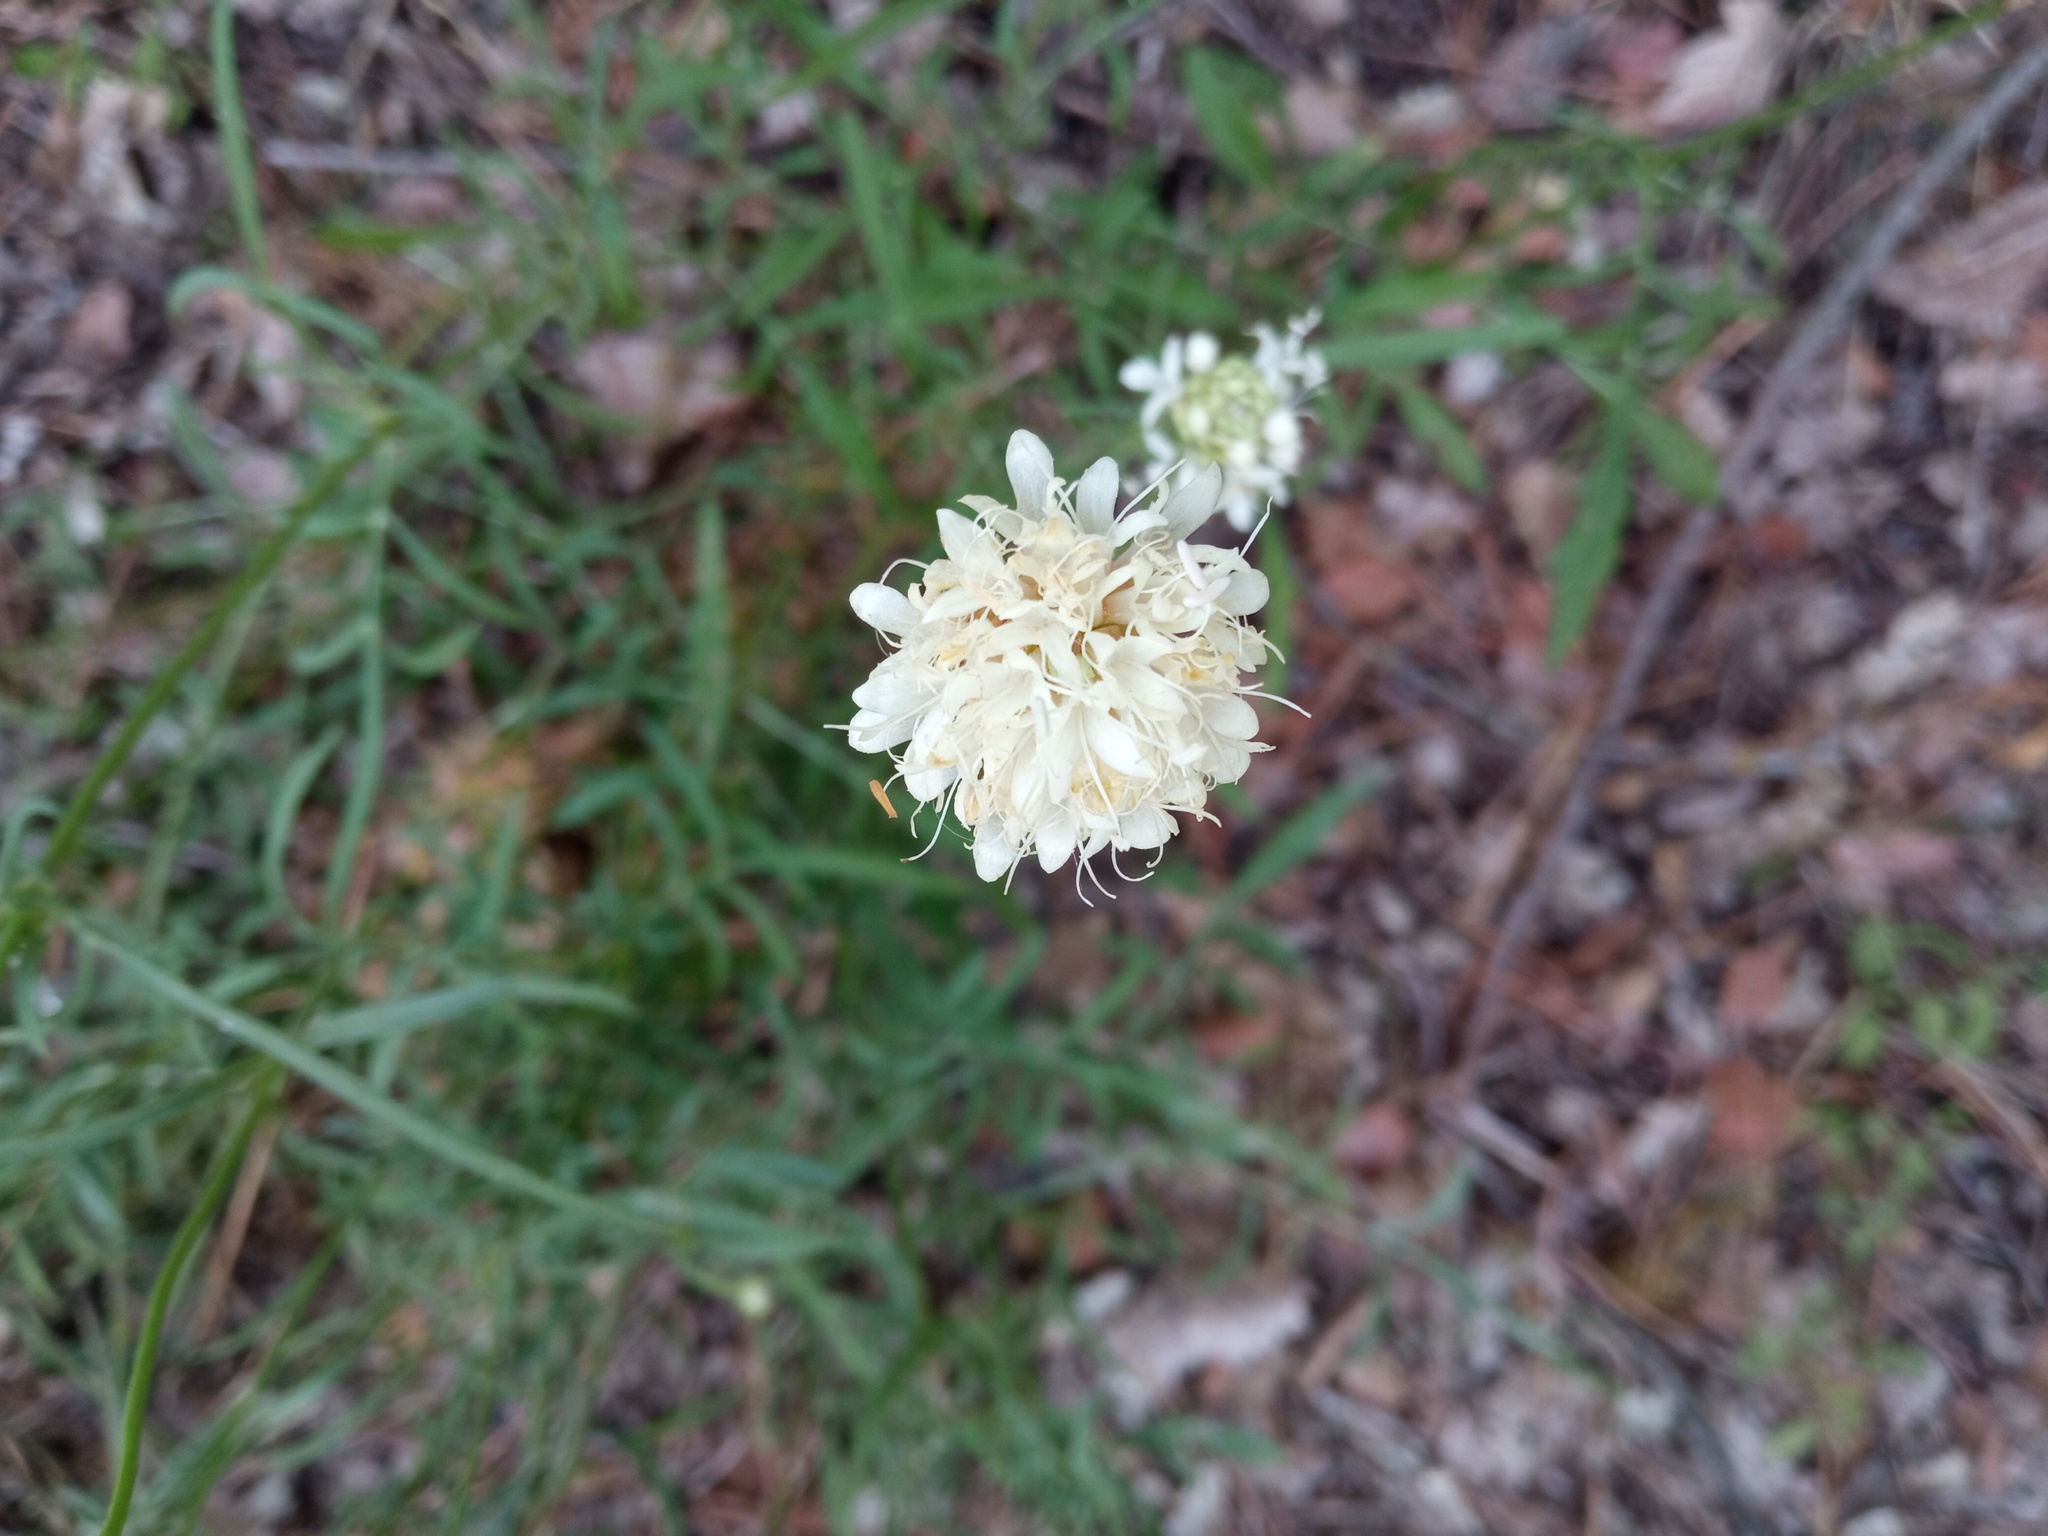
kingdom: Plantae
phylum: Tracheophyta
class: Magnoliopsida
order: Dipsacales
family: Caprifoliaceae
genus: Cephalaria
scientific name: Cephalaria leucantha
